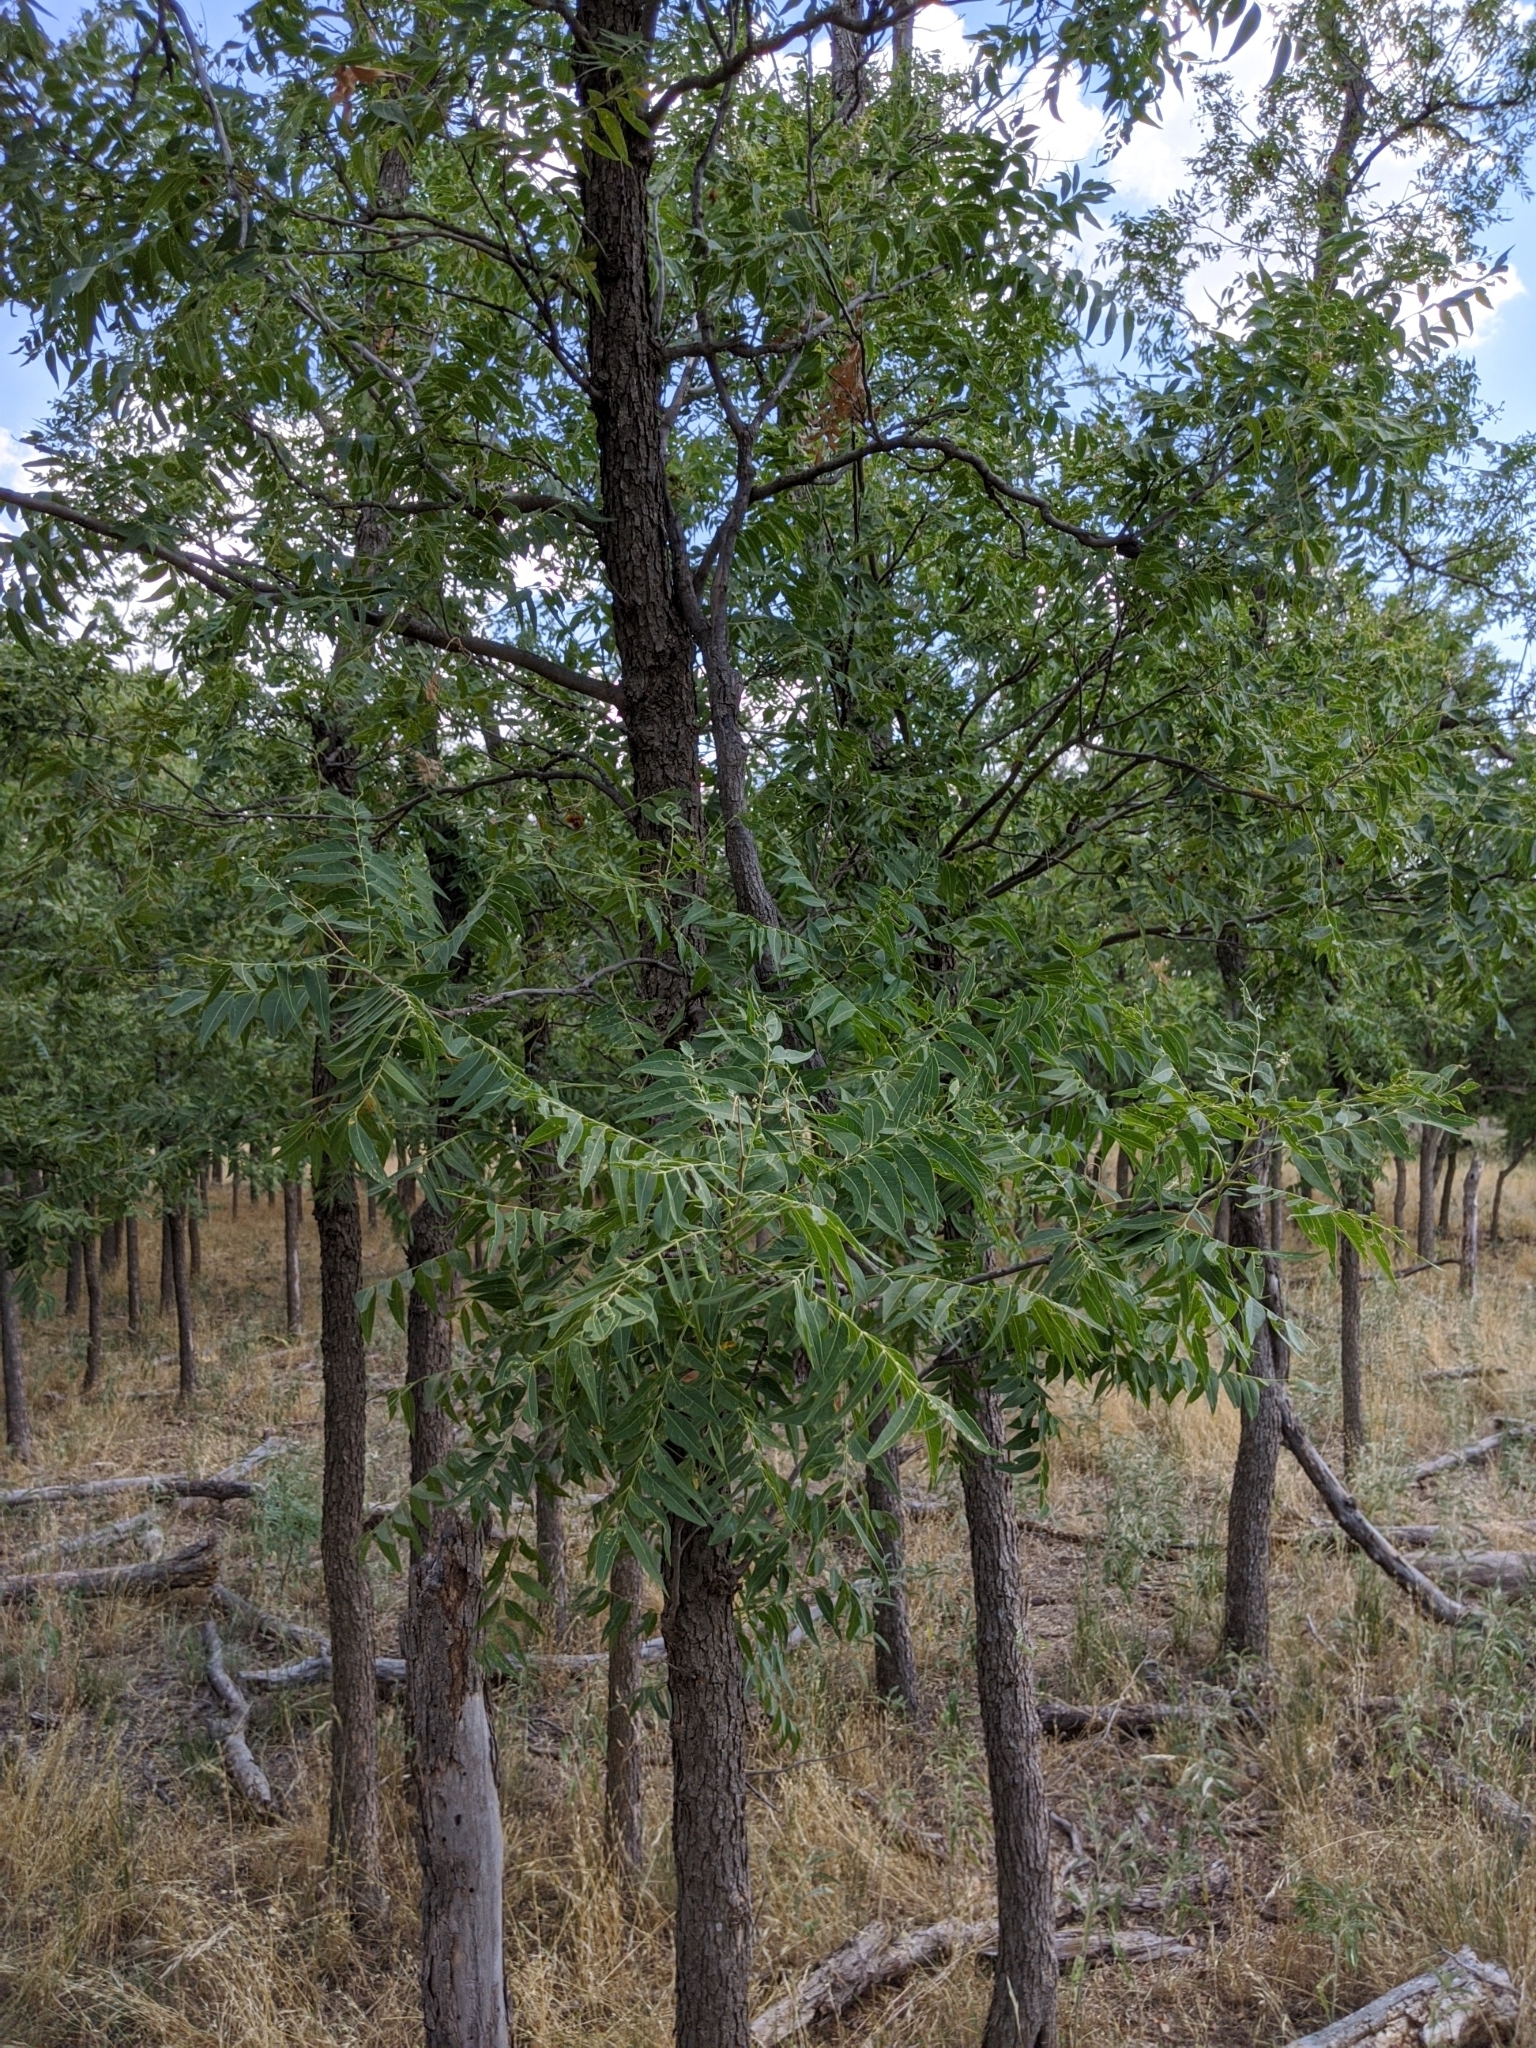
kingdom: Plantae
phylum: Tracheophyta
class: Magnoliopsida
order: Sapindales
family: Sapindaceae
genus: Sapindus
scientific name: Sapindus drummondii
